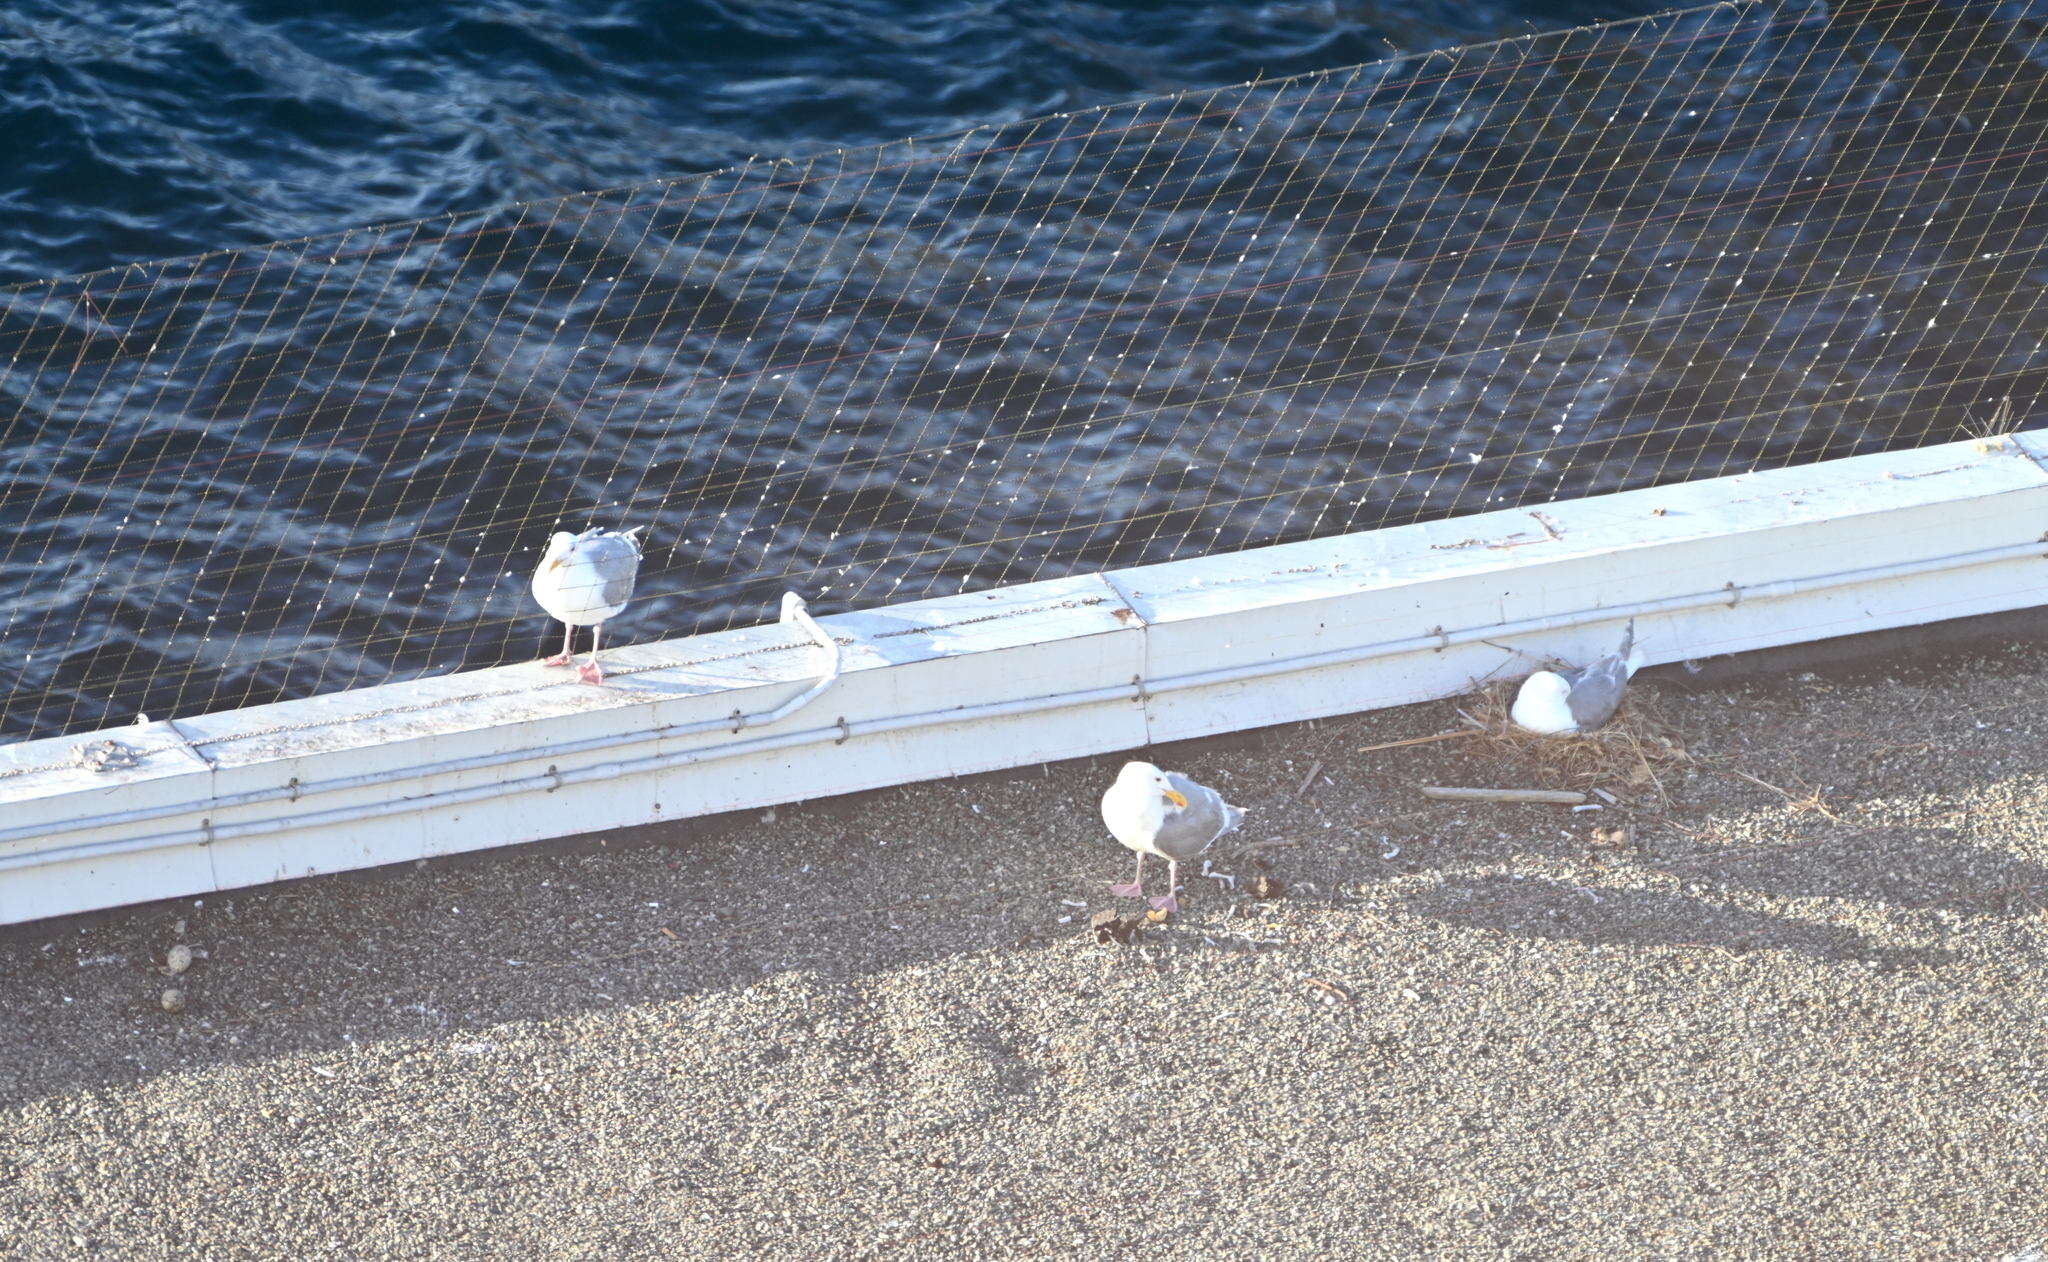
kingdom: Animalia
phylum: Chordata
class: Aves
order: Charadriiformes
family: Laridae
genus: Larus
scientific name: Larus glaucescens
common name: Glaucous-winged gull
